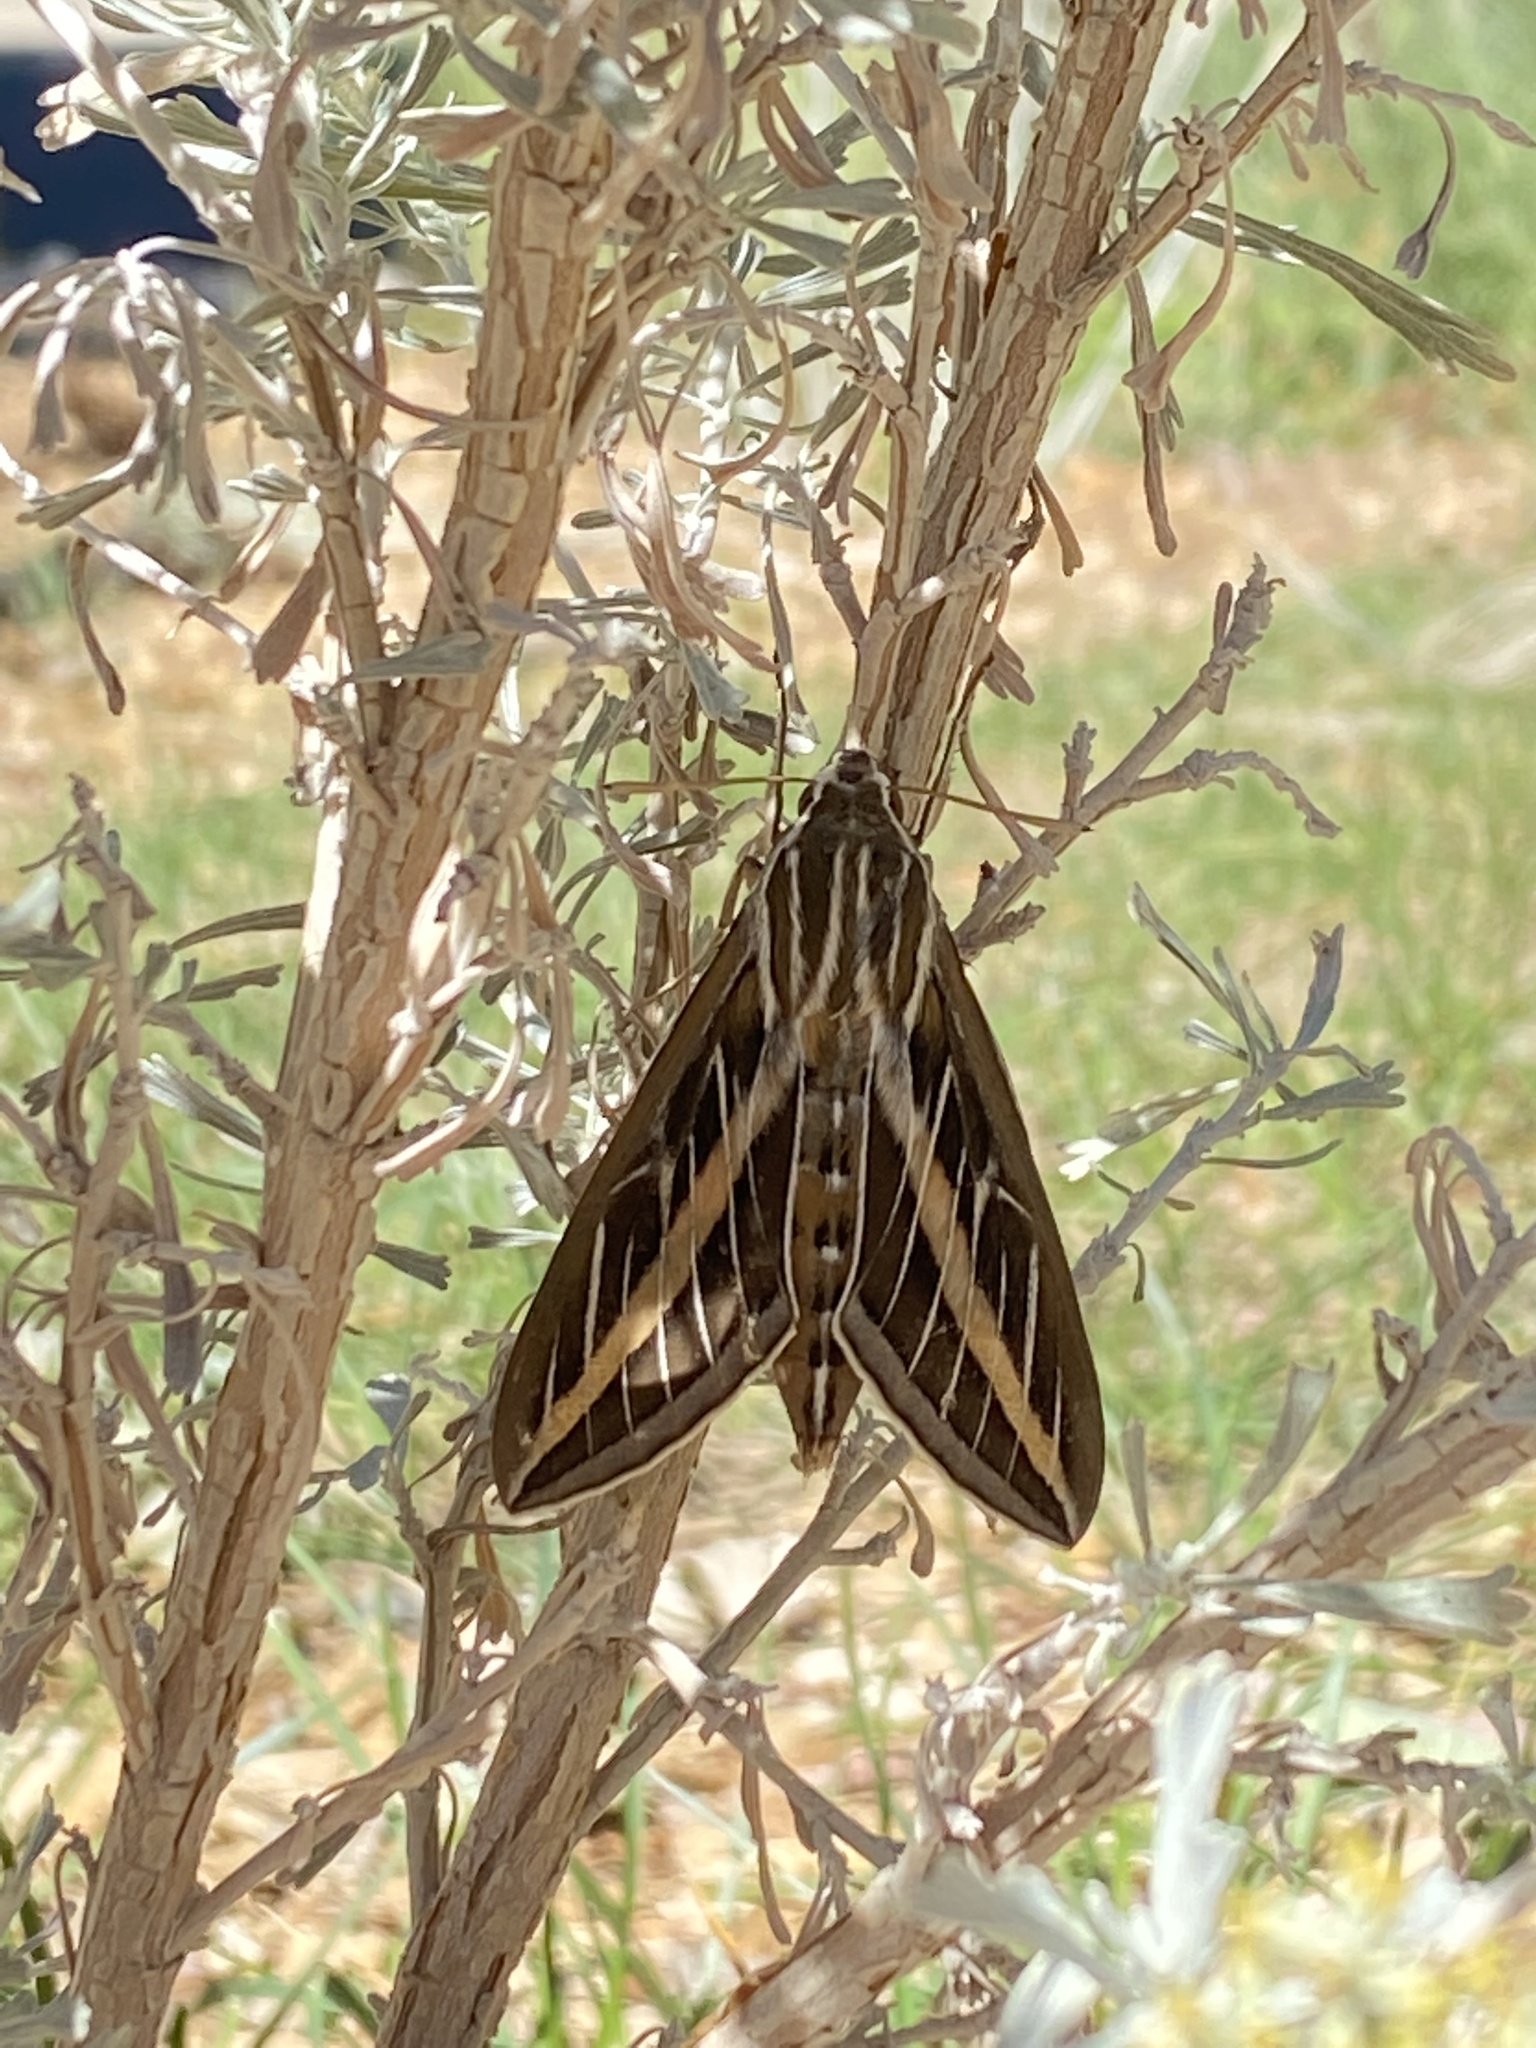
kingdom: Animalia
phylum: Arthropoda
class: Insecta
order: Lepidoptera
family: Sphingidae
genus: Hyles
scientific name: Hyles lineata
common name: White-lined sphinx
